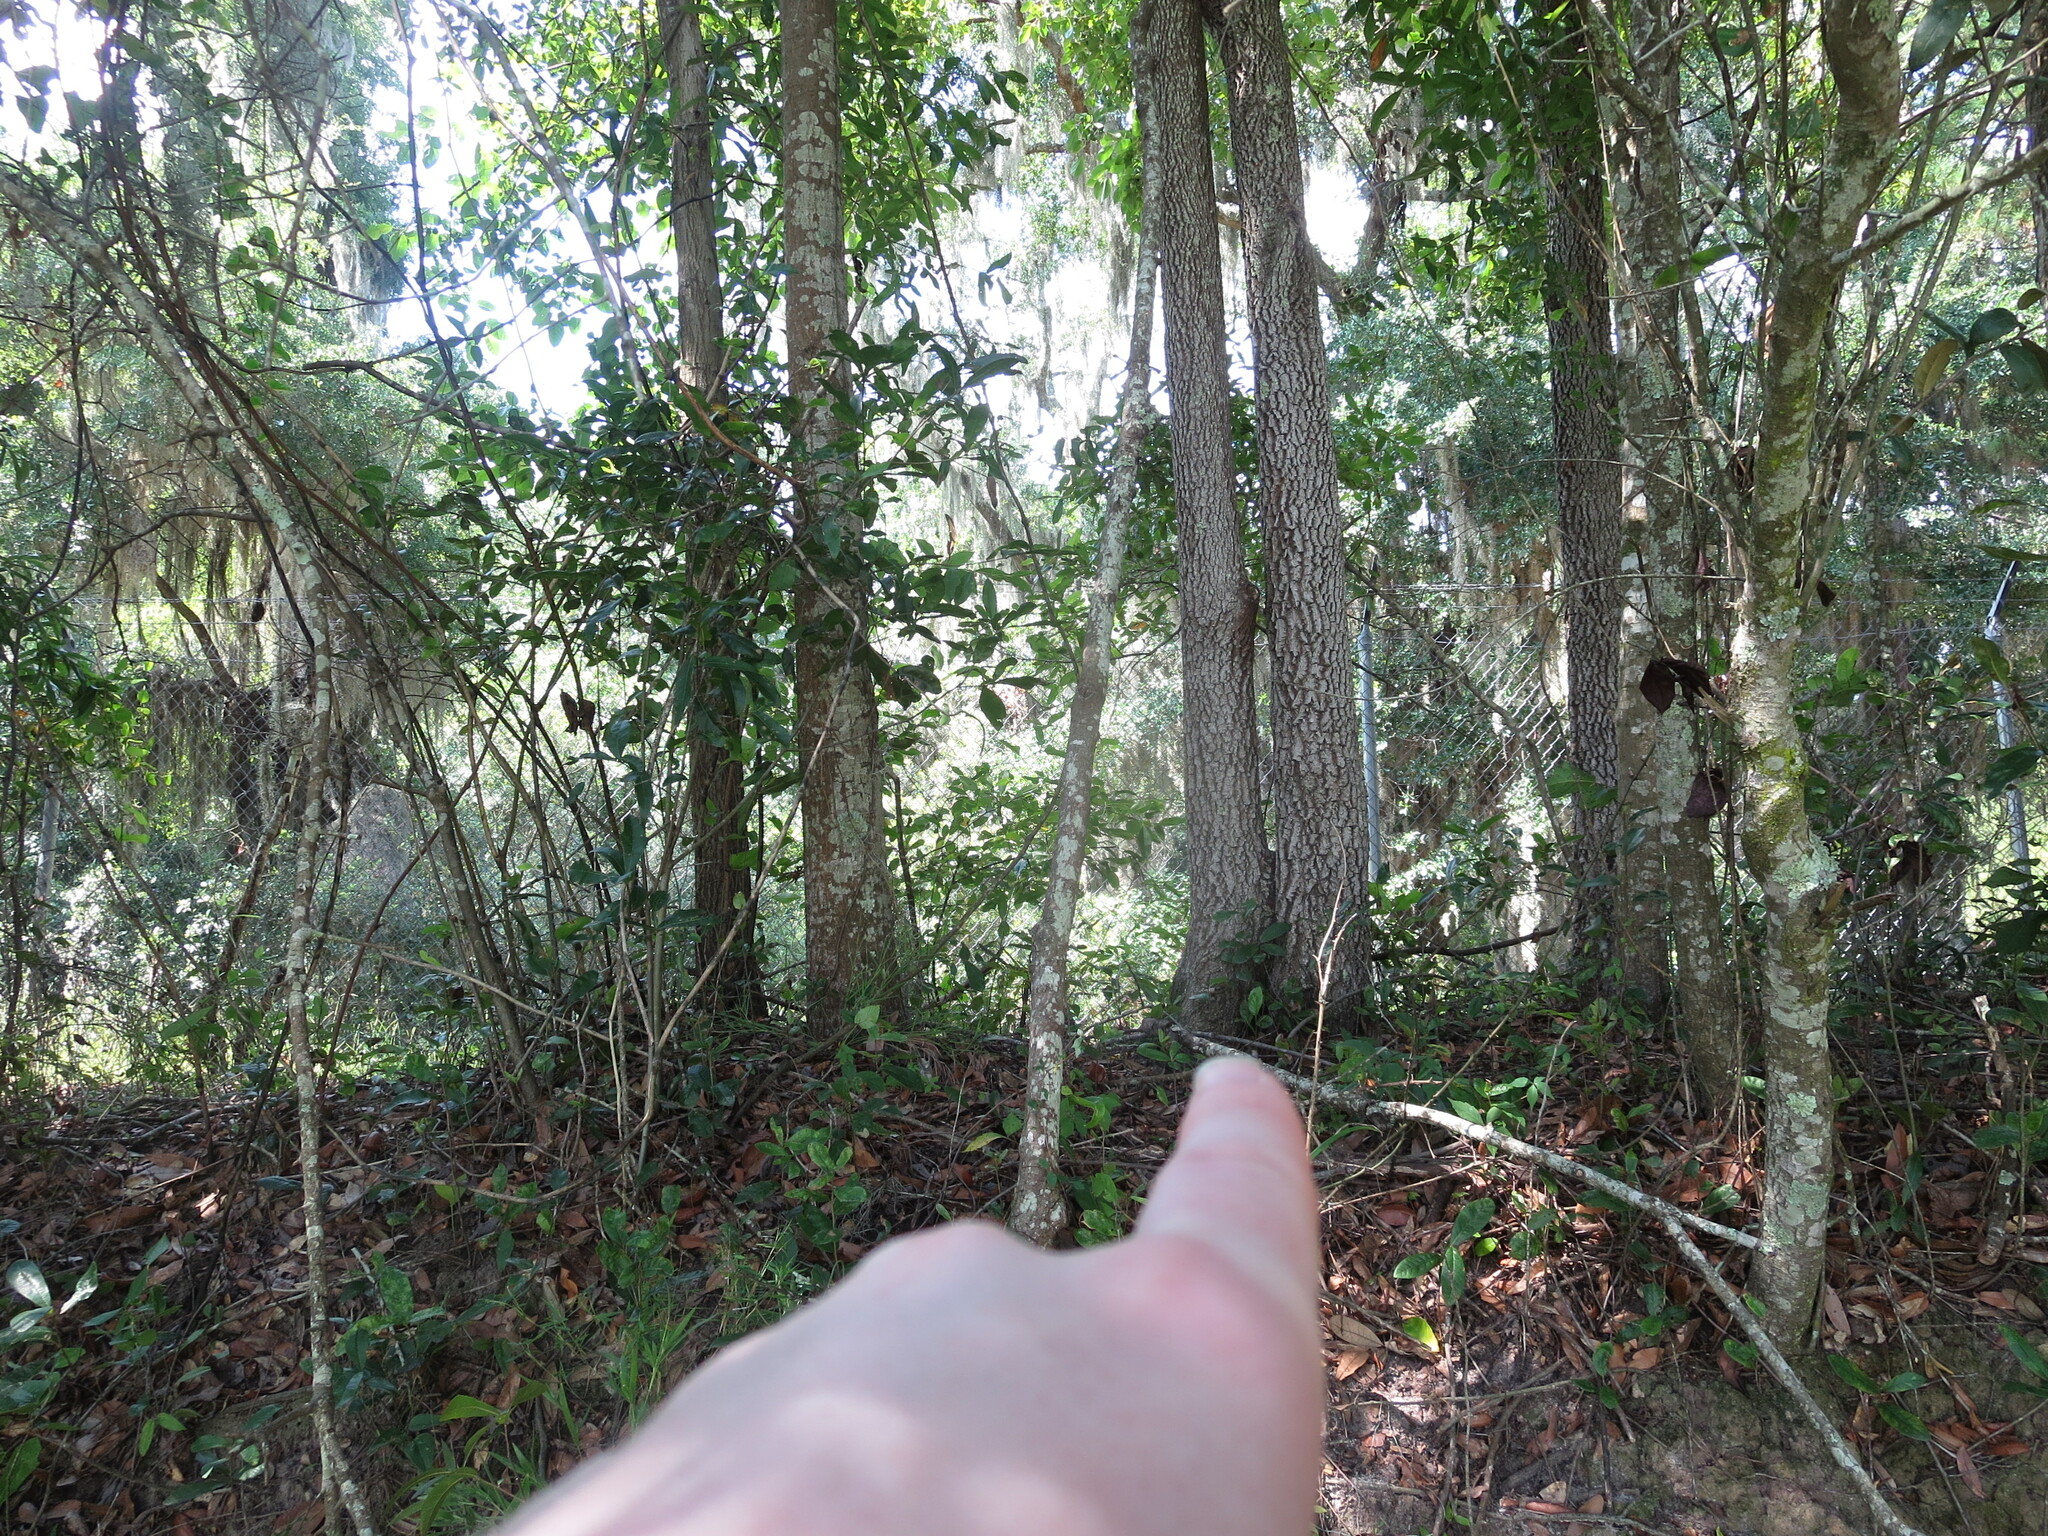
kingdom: Plantae
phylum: Tracheophyta
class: Magnoliopsida
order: Ericales
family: Ebenaceae
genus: Diospyros
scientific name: Diospyros virginiana
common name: Persimmon
